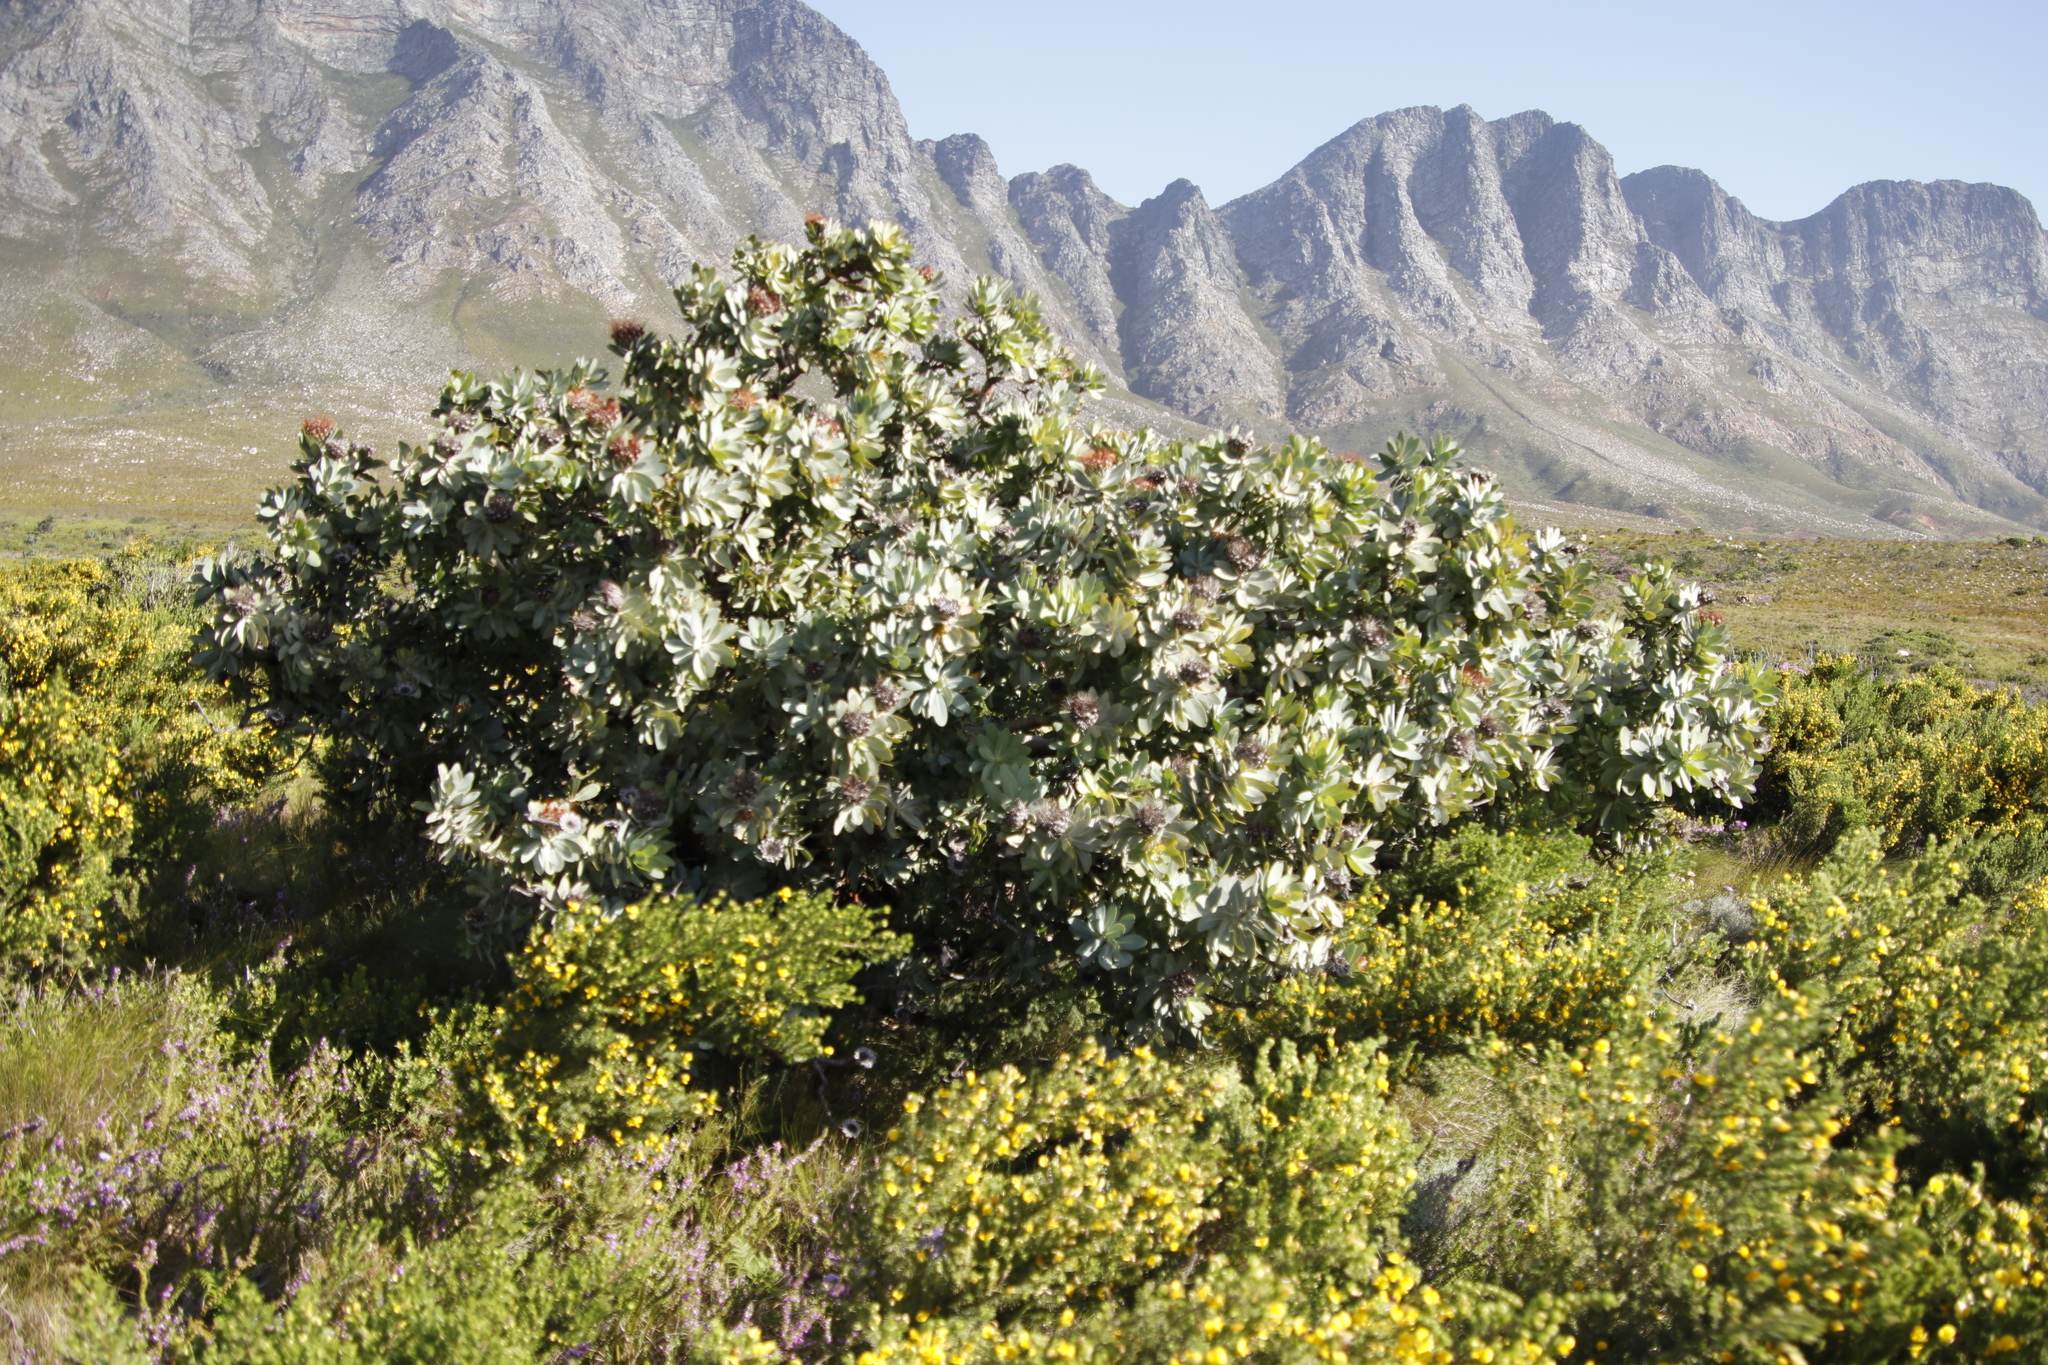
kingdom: Plantae
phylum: Tracheophyta
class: Magnoliopsida
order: Proteales
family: Proteaceae
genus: Protea
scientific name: Protea nitida
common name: Tree protea
